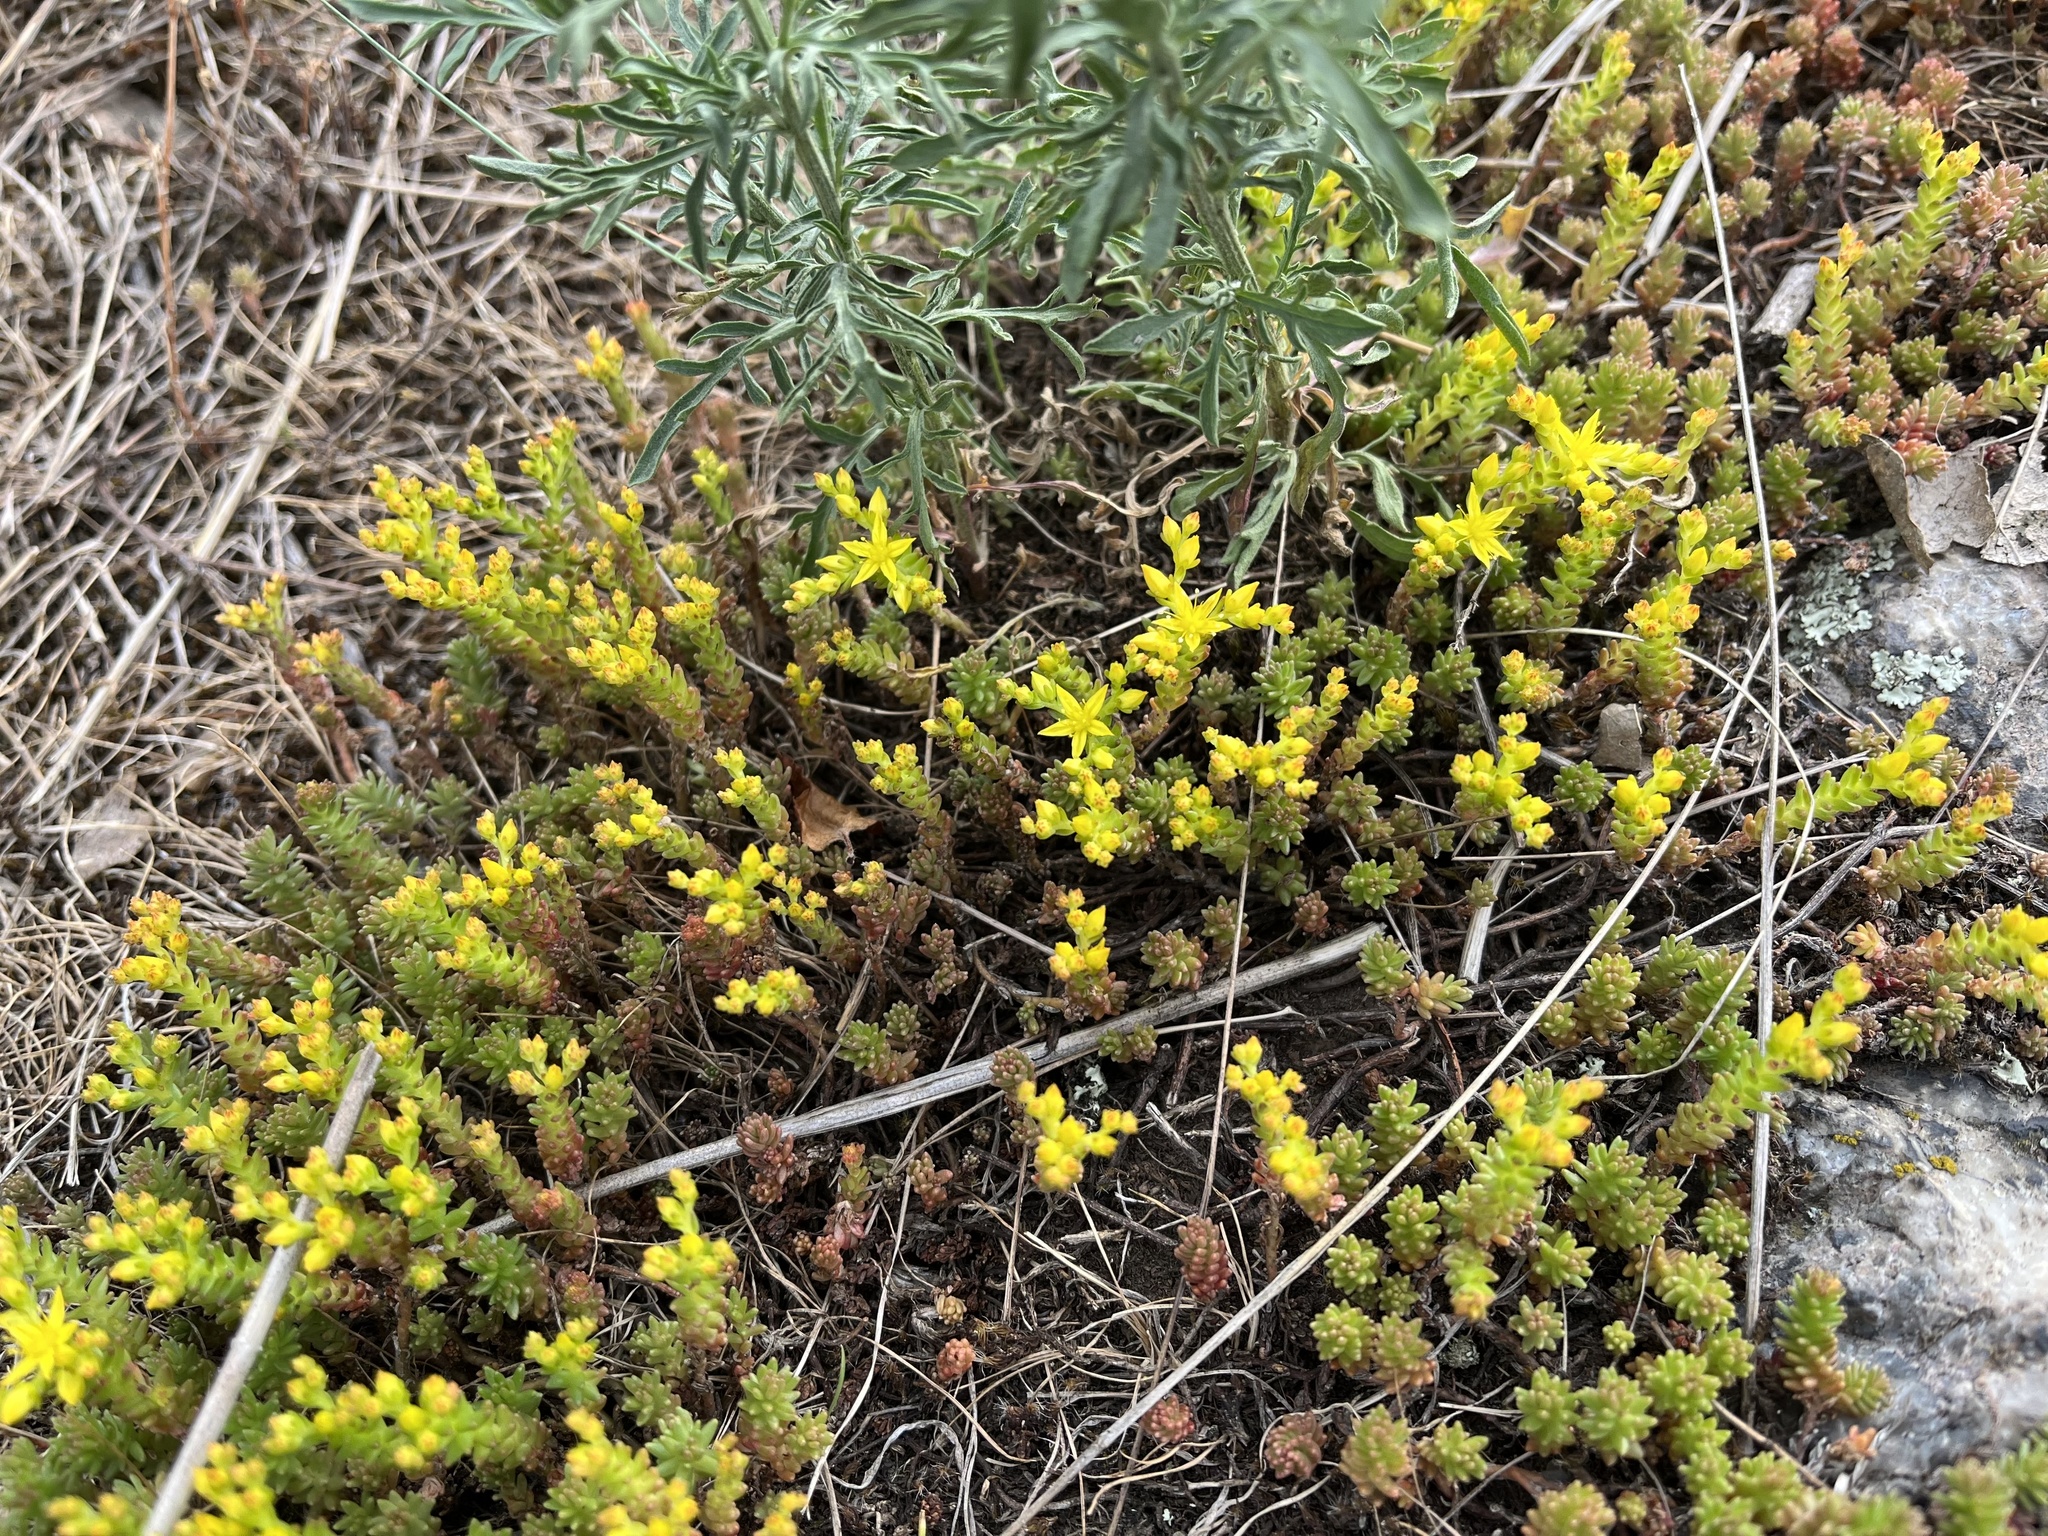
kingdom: Plantae
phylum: Tracheophyta
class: Magnoliopsida
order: Saxifragales
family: Crassulaceae
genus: Sedum
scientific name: Sedum sexangulare
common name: Tasteless stonecrop
